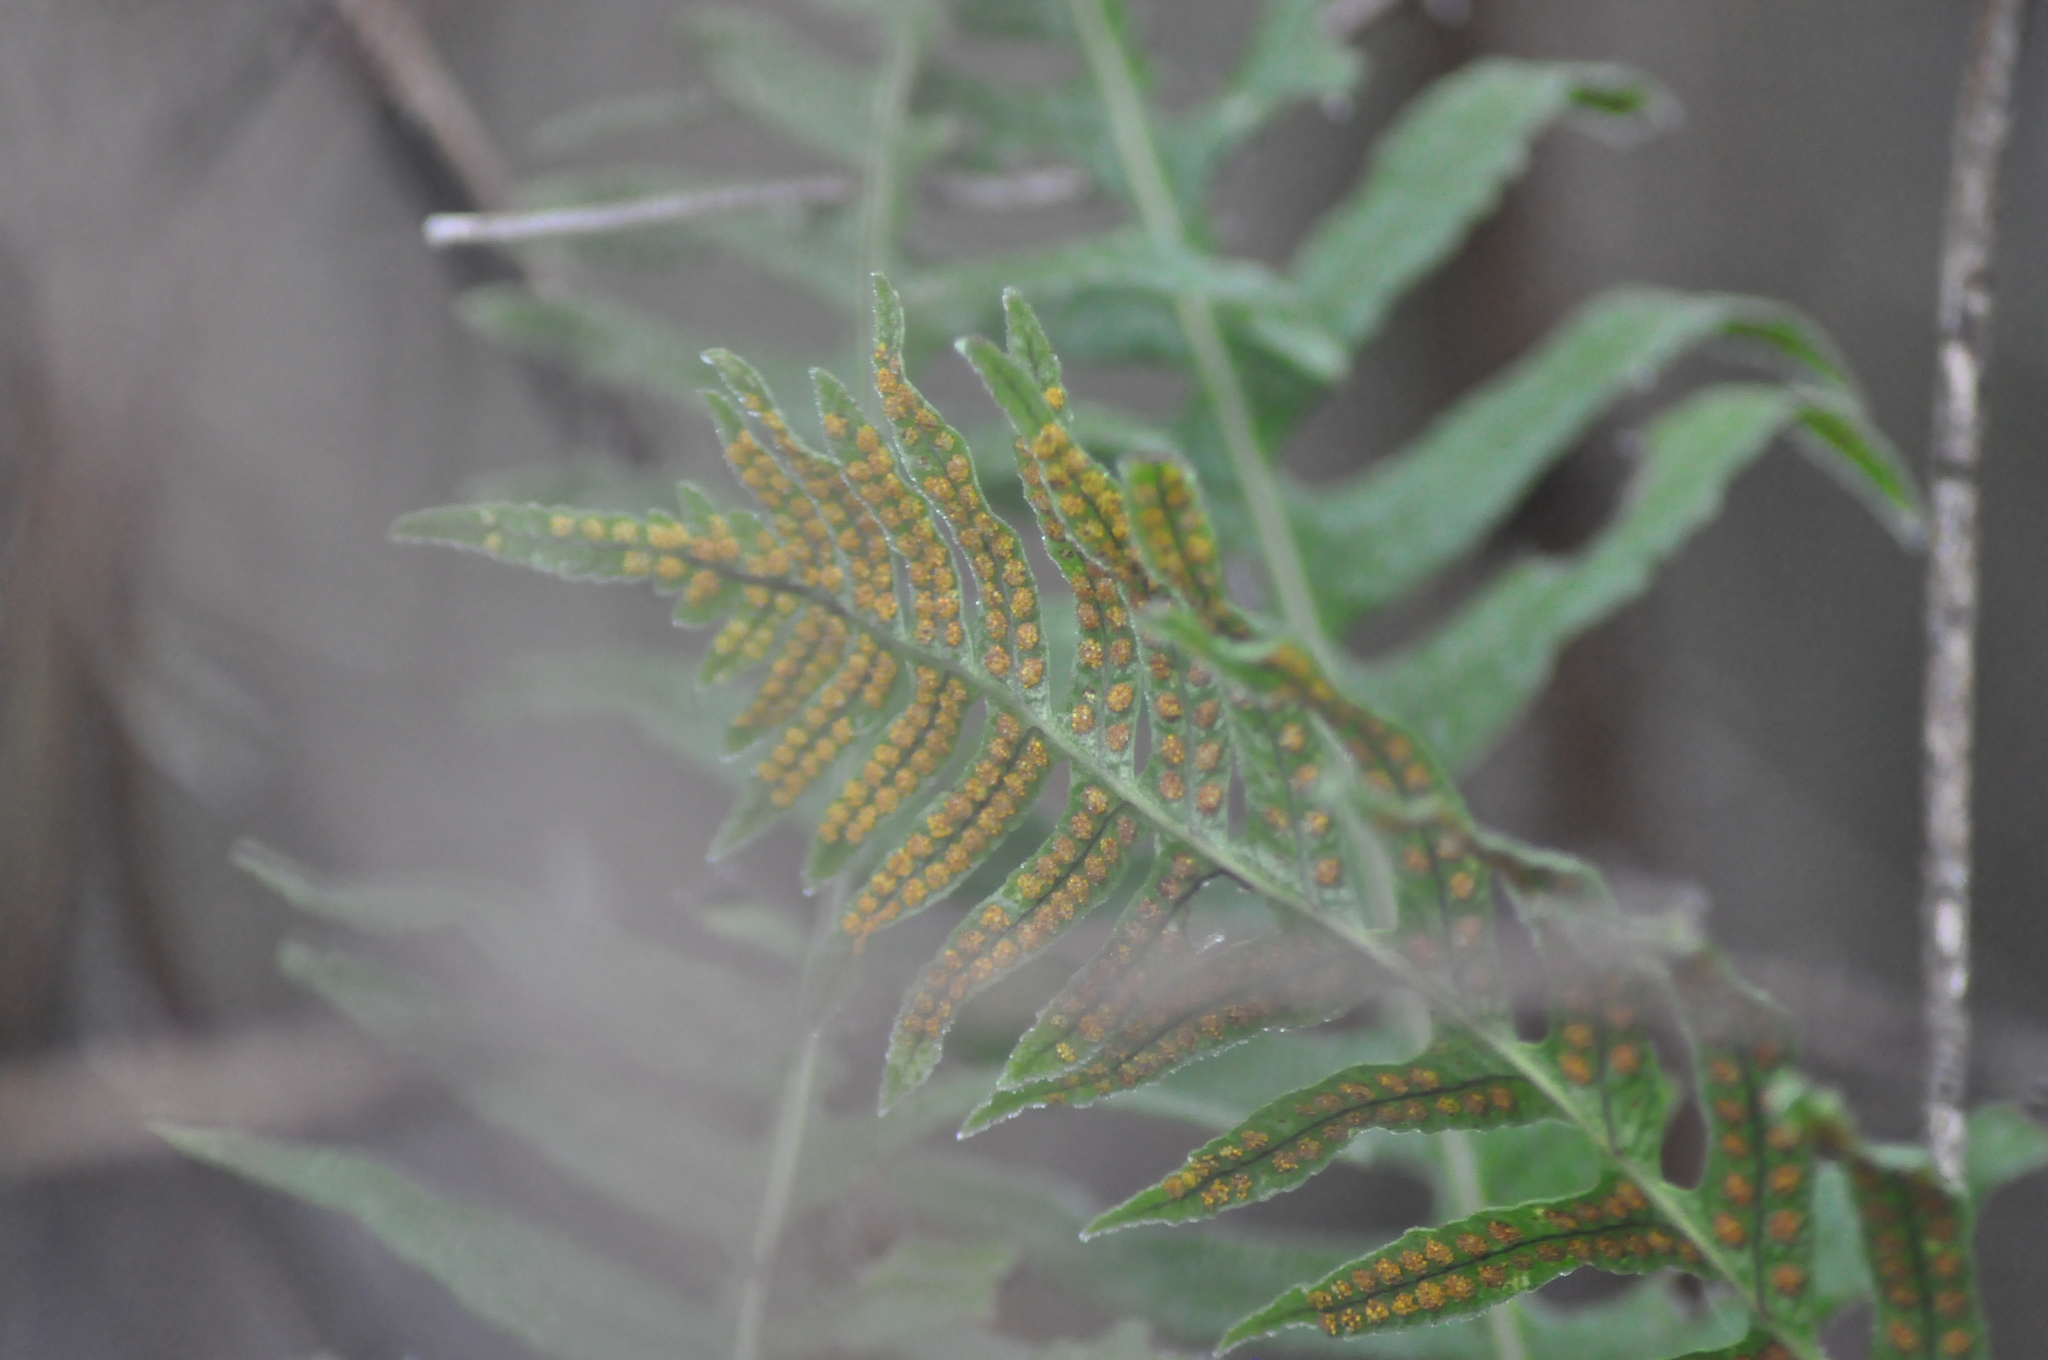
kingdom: Plantae
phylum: Tracheophyta
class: Polypodiopsida
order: Polypodiales
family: Polypodiaceae
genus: Polypodium
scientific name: Polypodium
